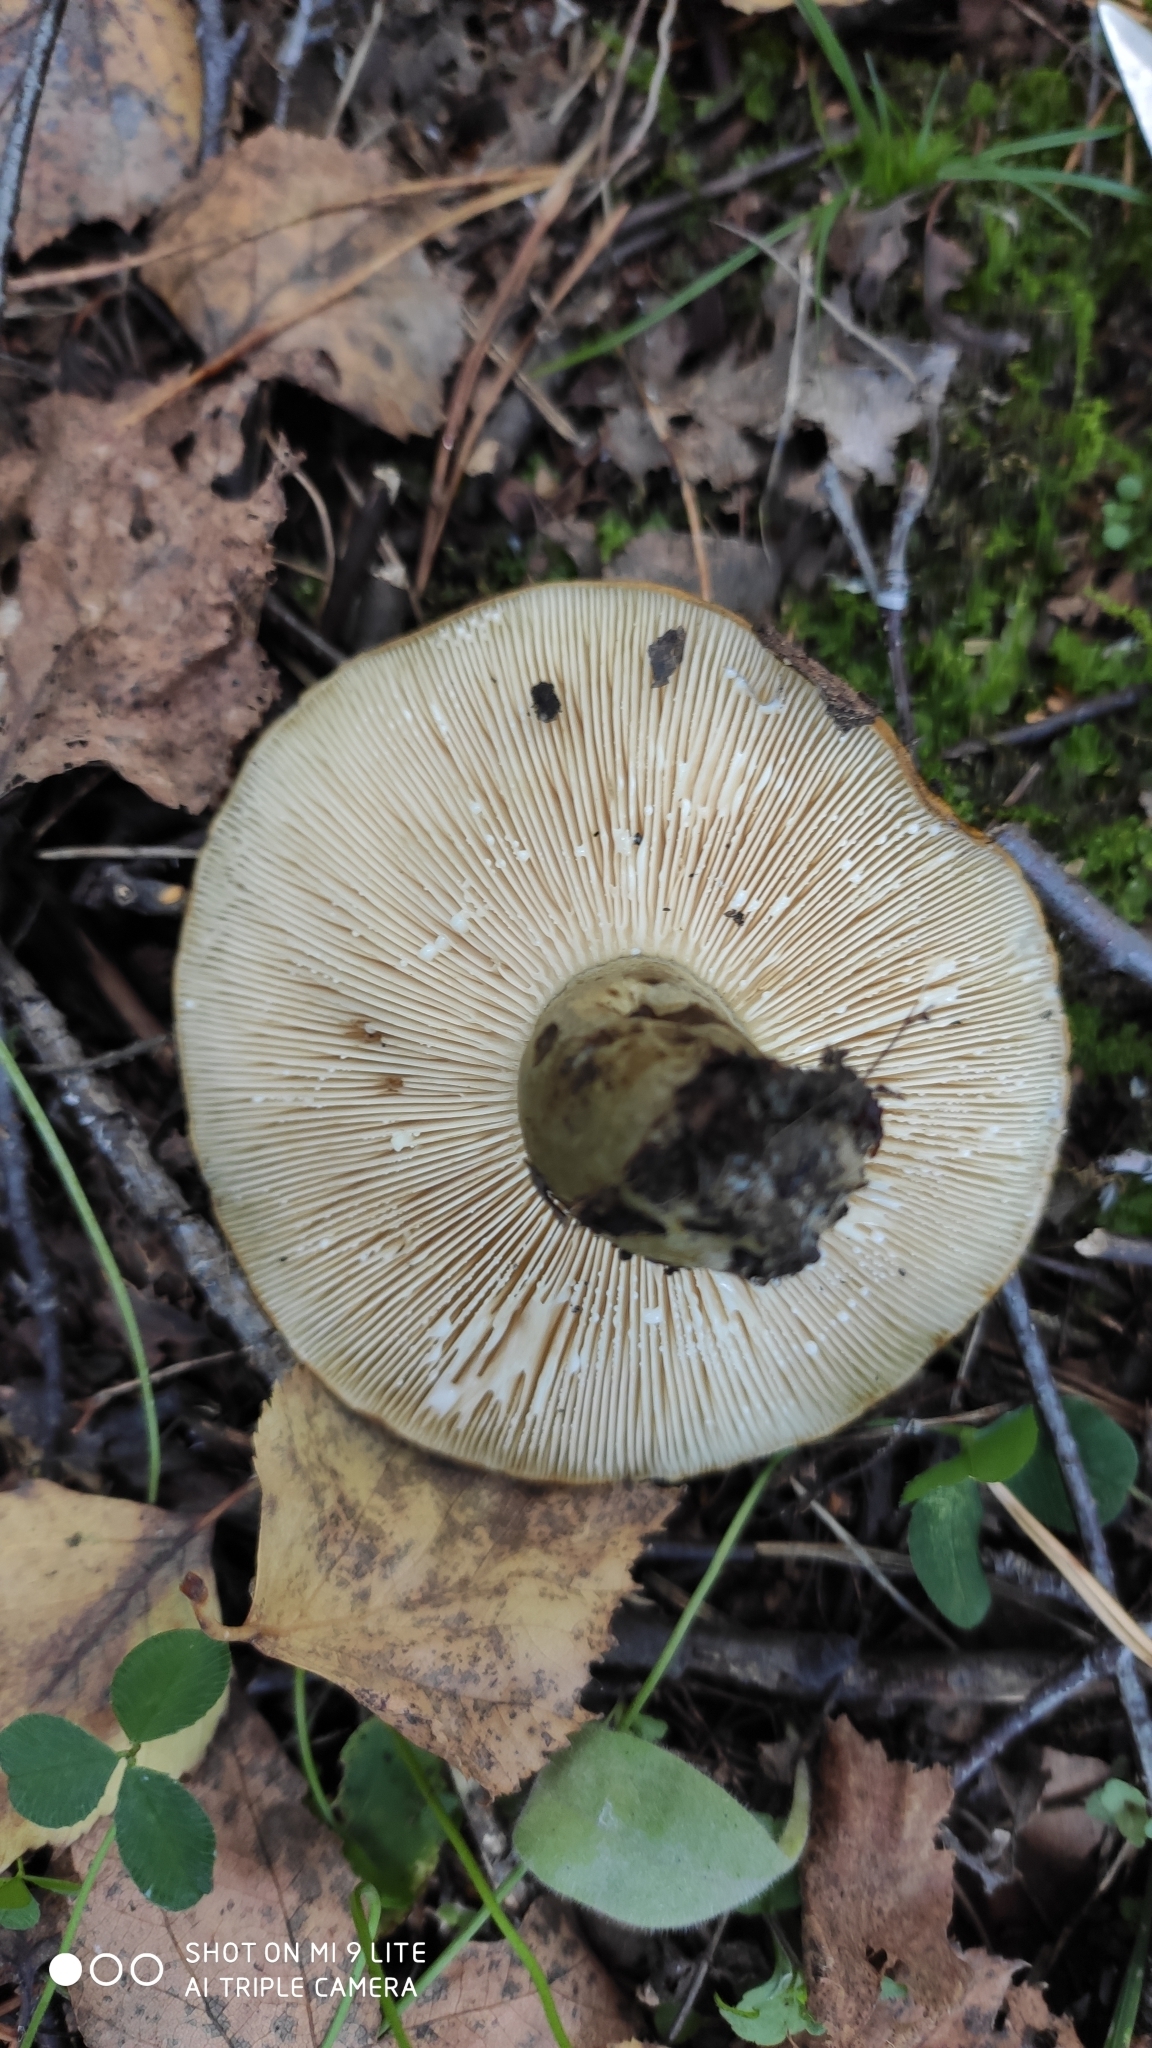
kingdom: Fungi
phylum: Basidiomycota
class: Agaricomycetes
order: Russulales
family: Russulaceae
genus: Lactarius
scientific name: Lactarius turpis
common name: Ugly milk-cap
